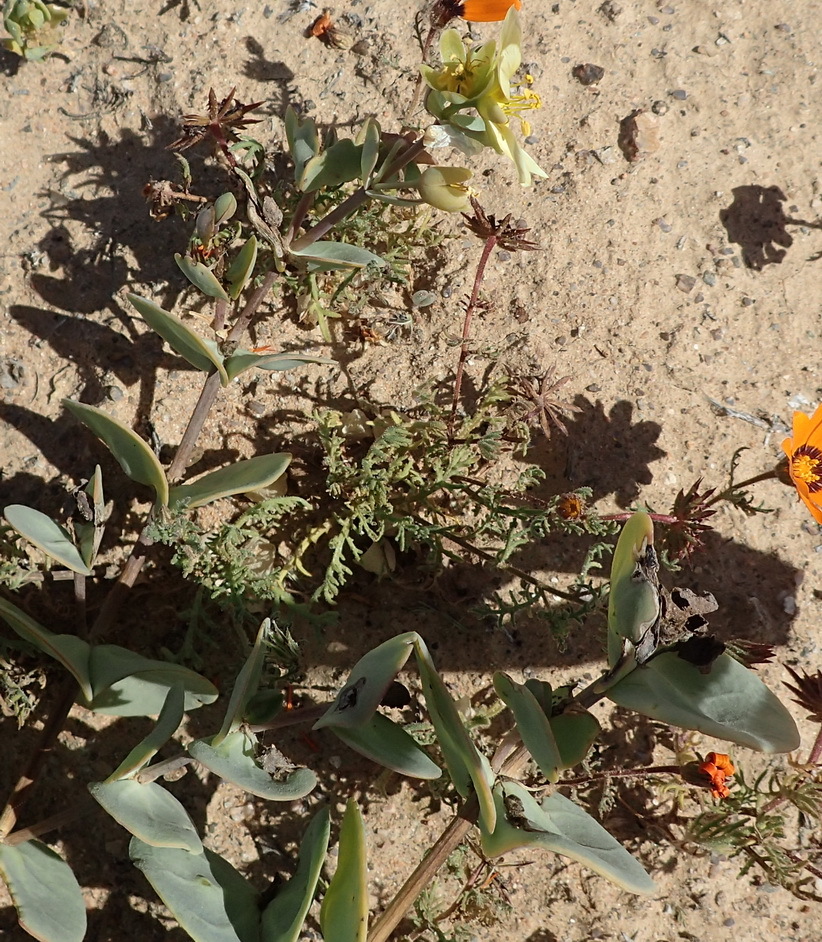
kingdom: Plantae
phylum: Tracheophyta
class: Magnoliopsida
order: Zygophyllales
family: Zygophyllaceae
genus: Roepera
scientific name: Roepera cordifolia
